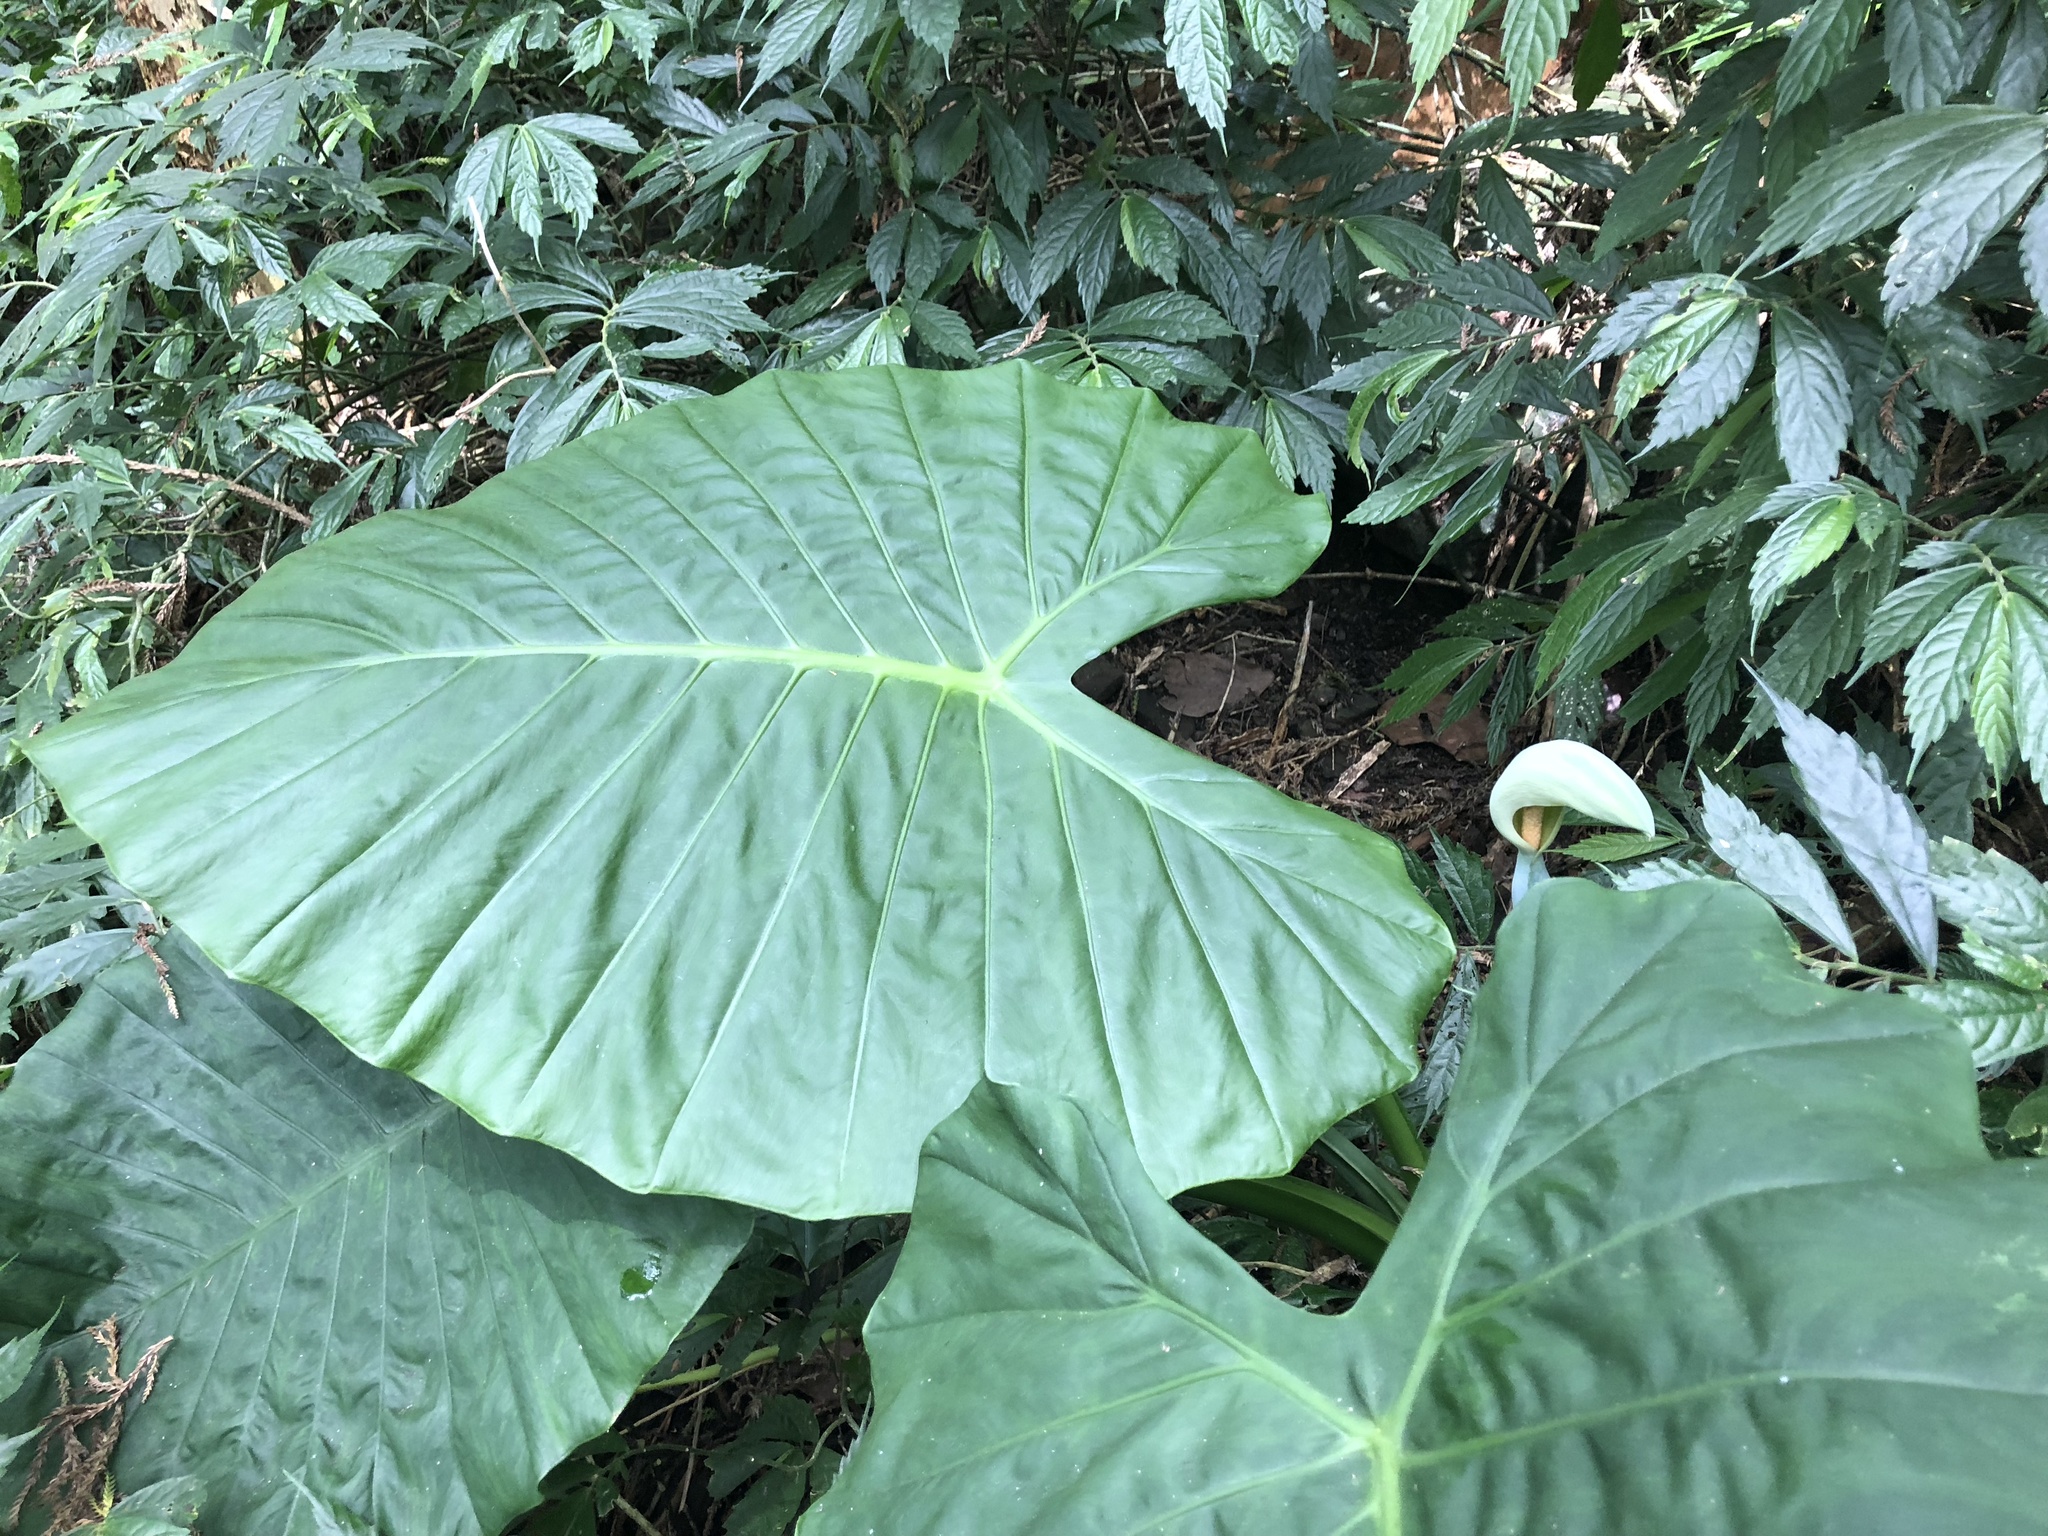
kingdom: Plantae
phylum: Tracheophyta
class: Liliopsida
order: Alismatales
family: Araceae
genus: Alocasia
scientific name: Alocasia odora
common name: Asian taro
